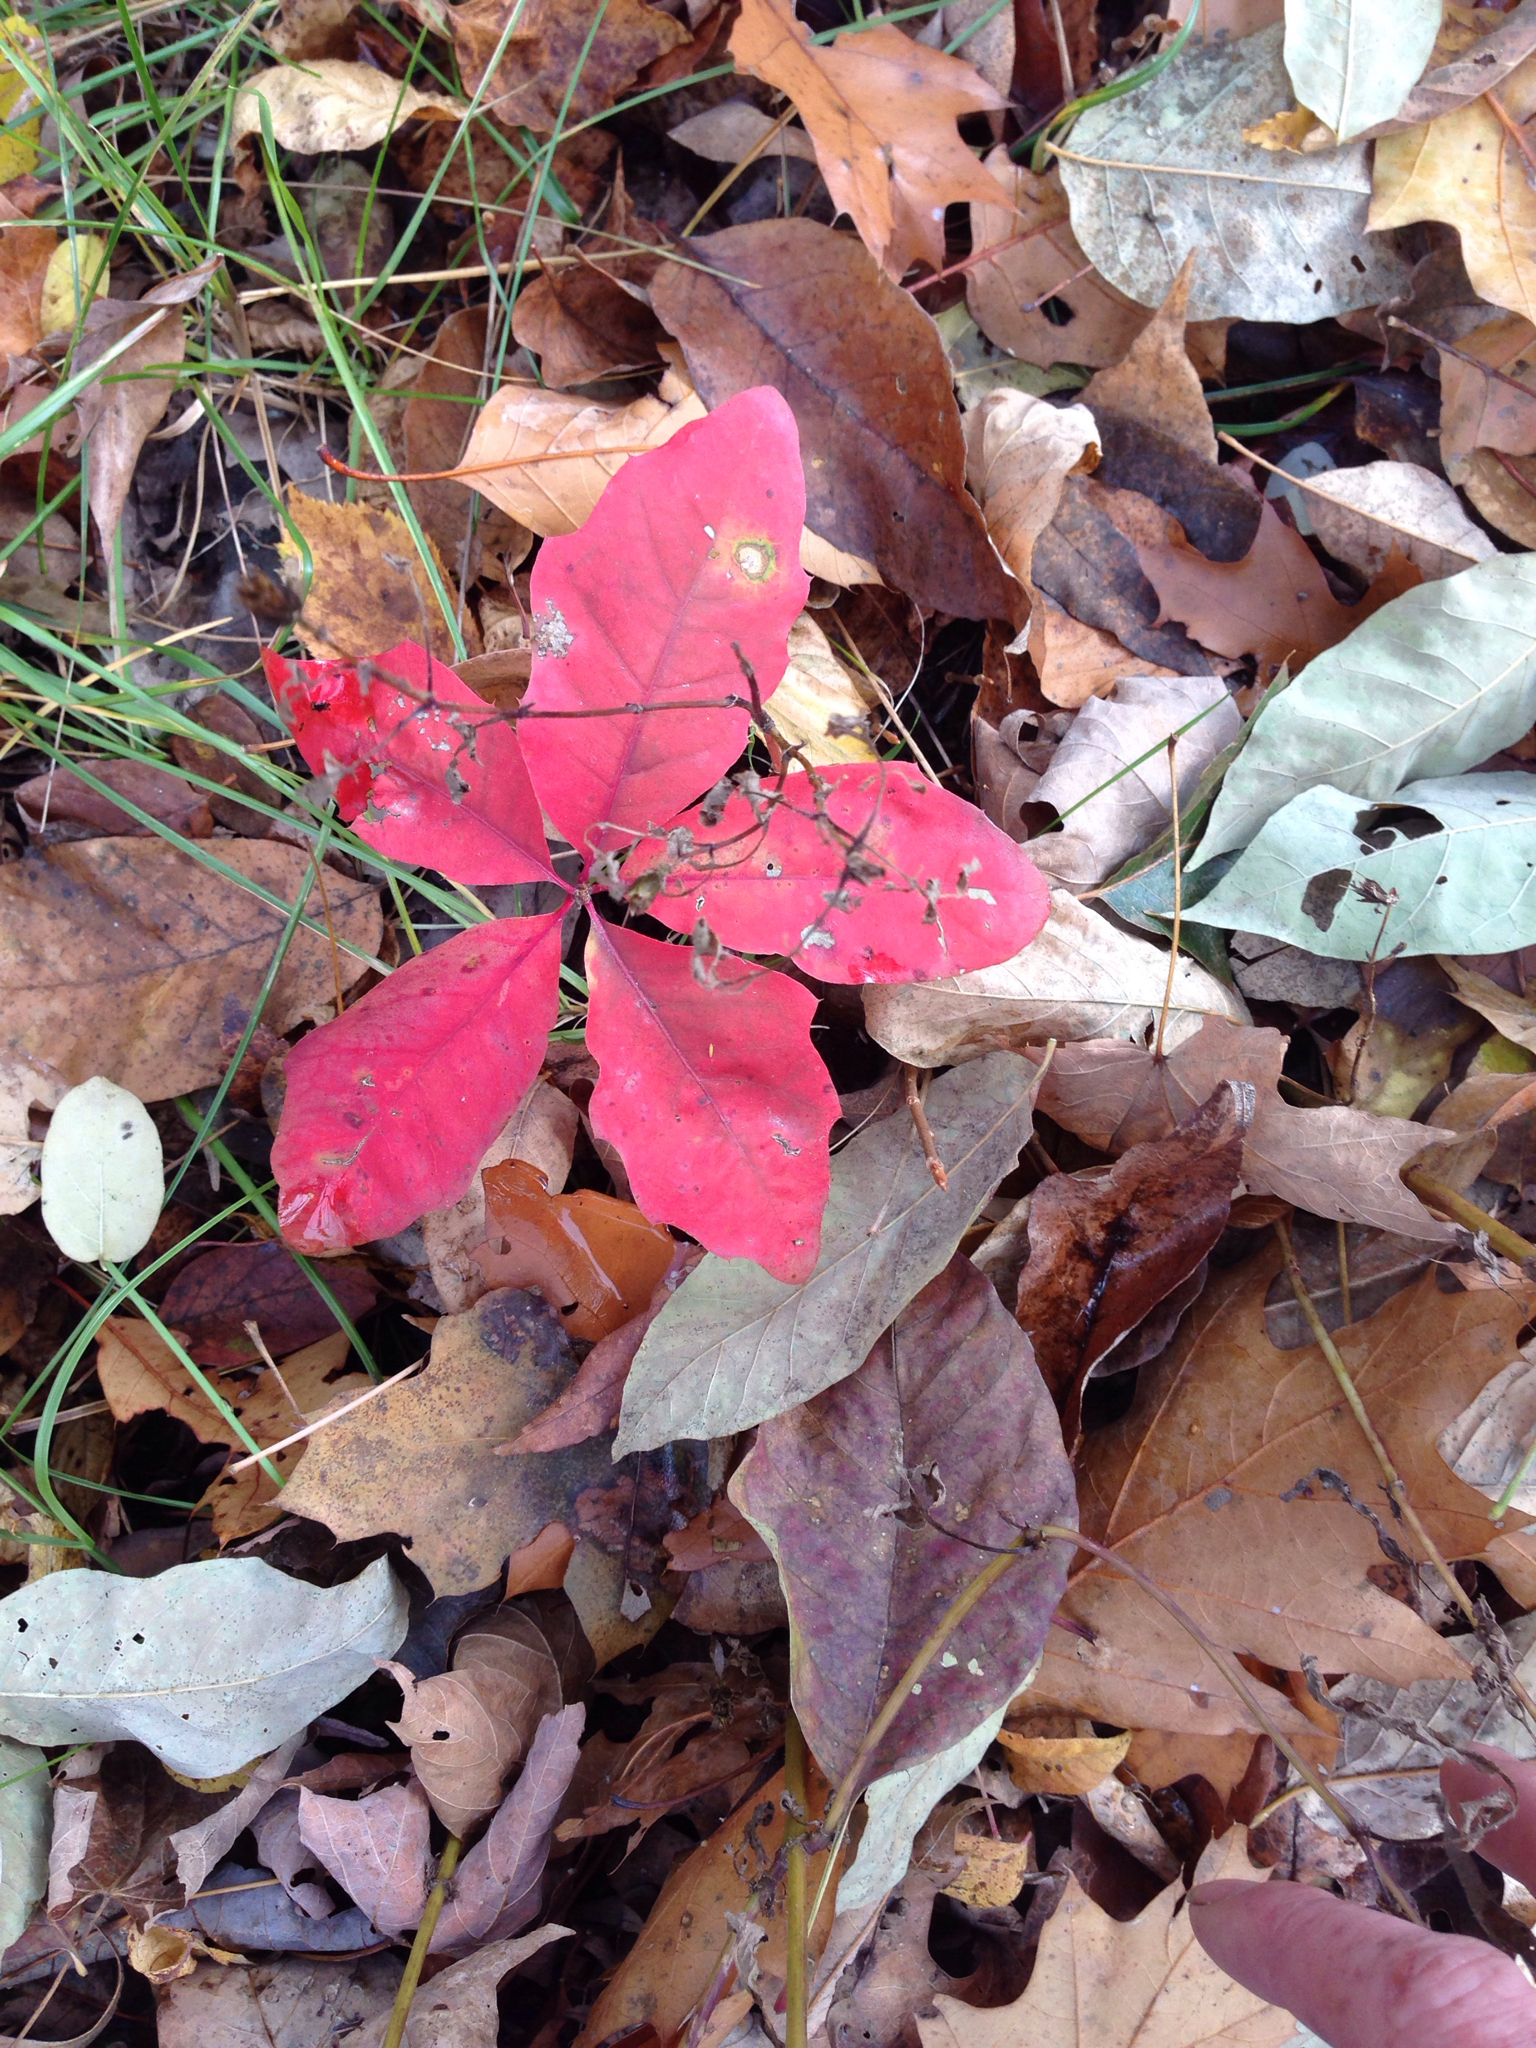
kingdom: Plantae
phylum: Tracheophyta
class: Magnoliopsida
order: Fagales
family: Fagaceae
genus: Quercus
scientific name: Quercus rubra
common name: Red oak
